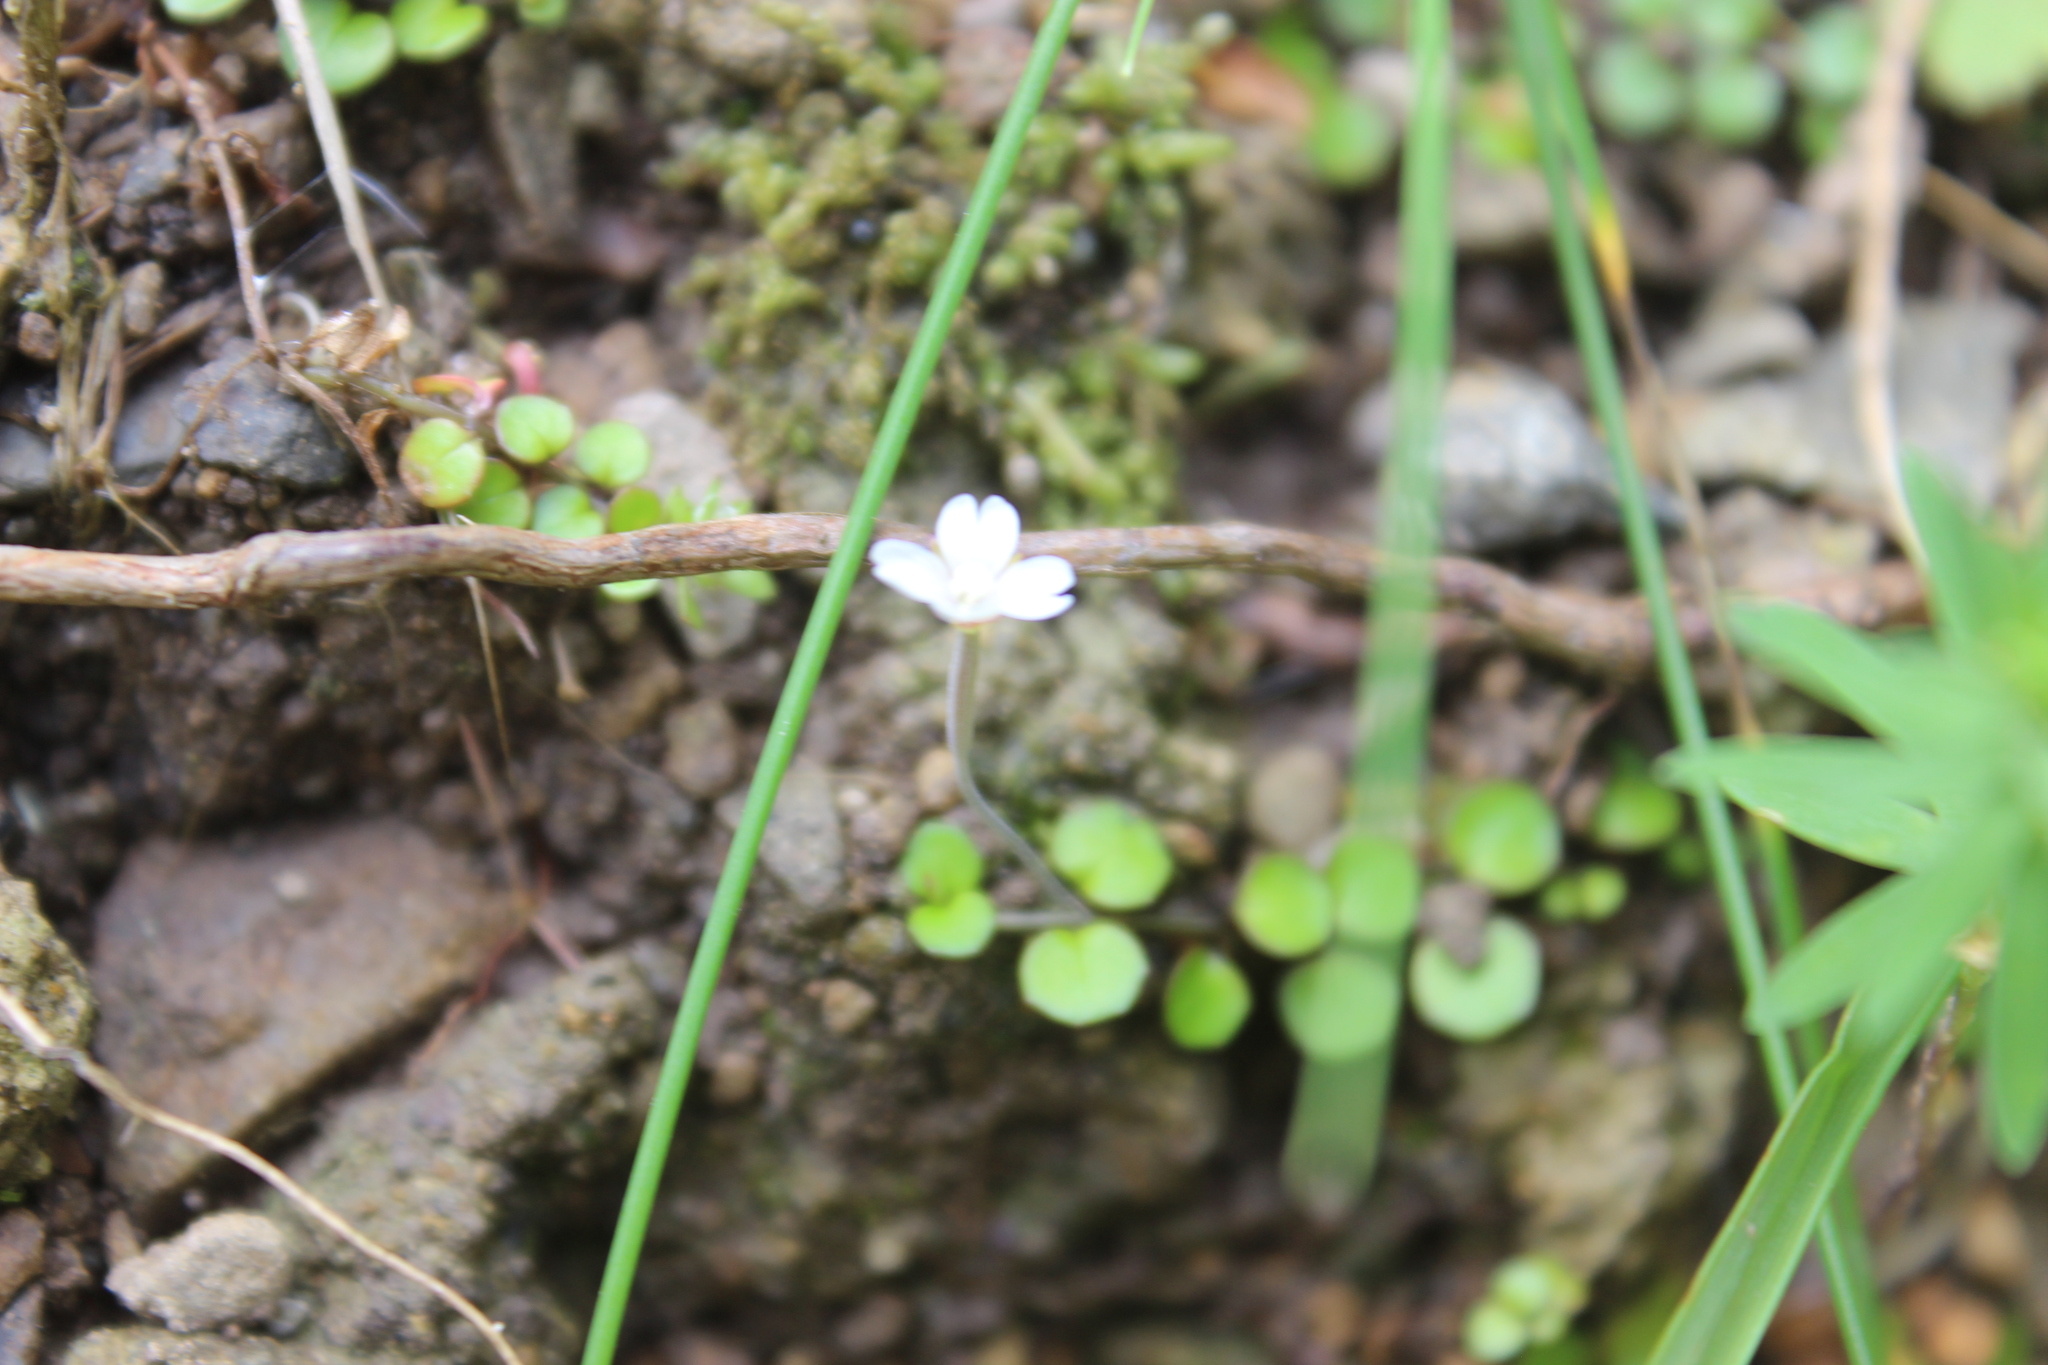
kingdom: Plantae
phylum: Tracheophyta
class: Magnoliopsida
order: Myrtales
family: Onagraceae
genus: Epilobium
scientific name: Epilobium nummularifolium
